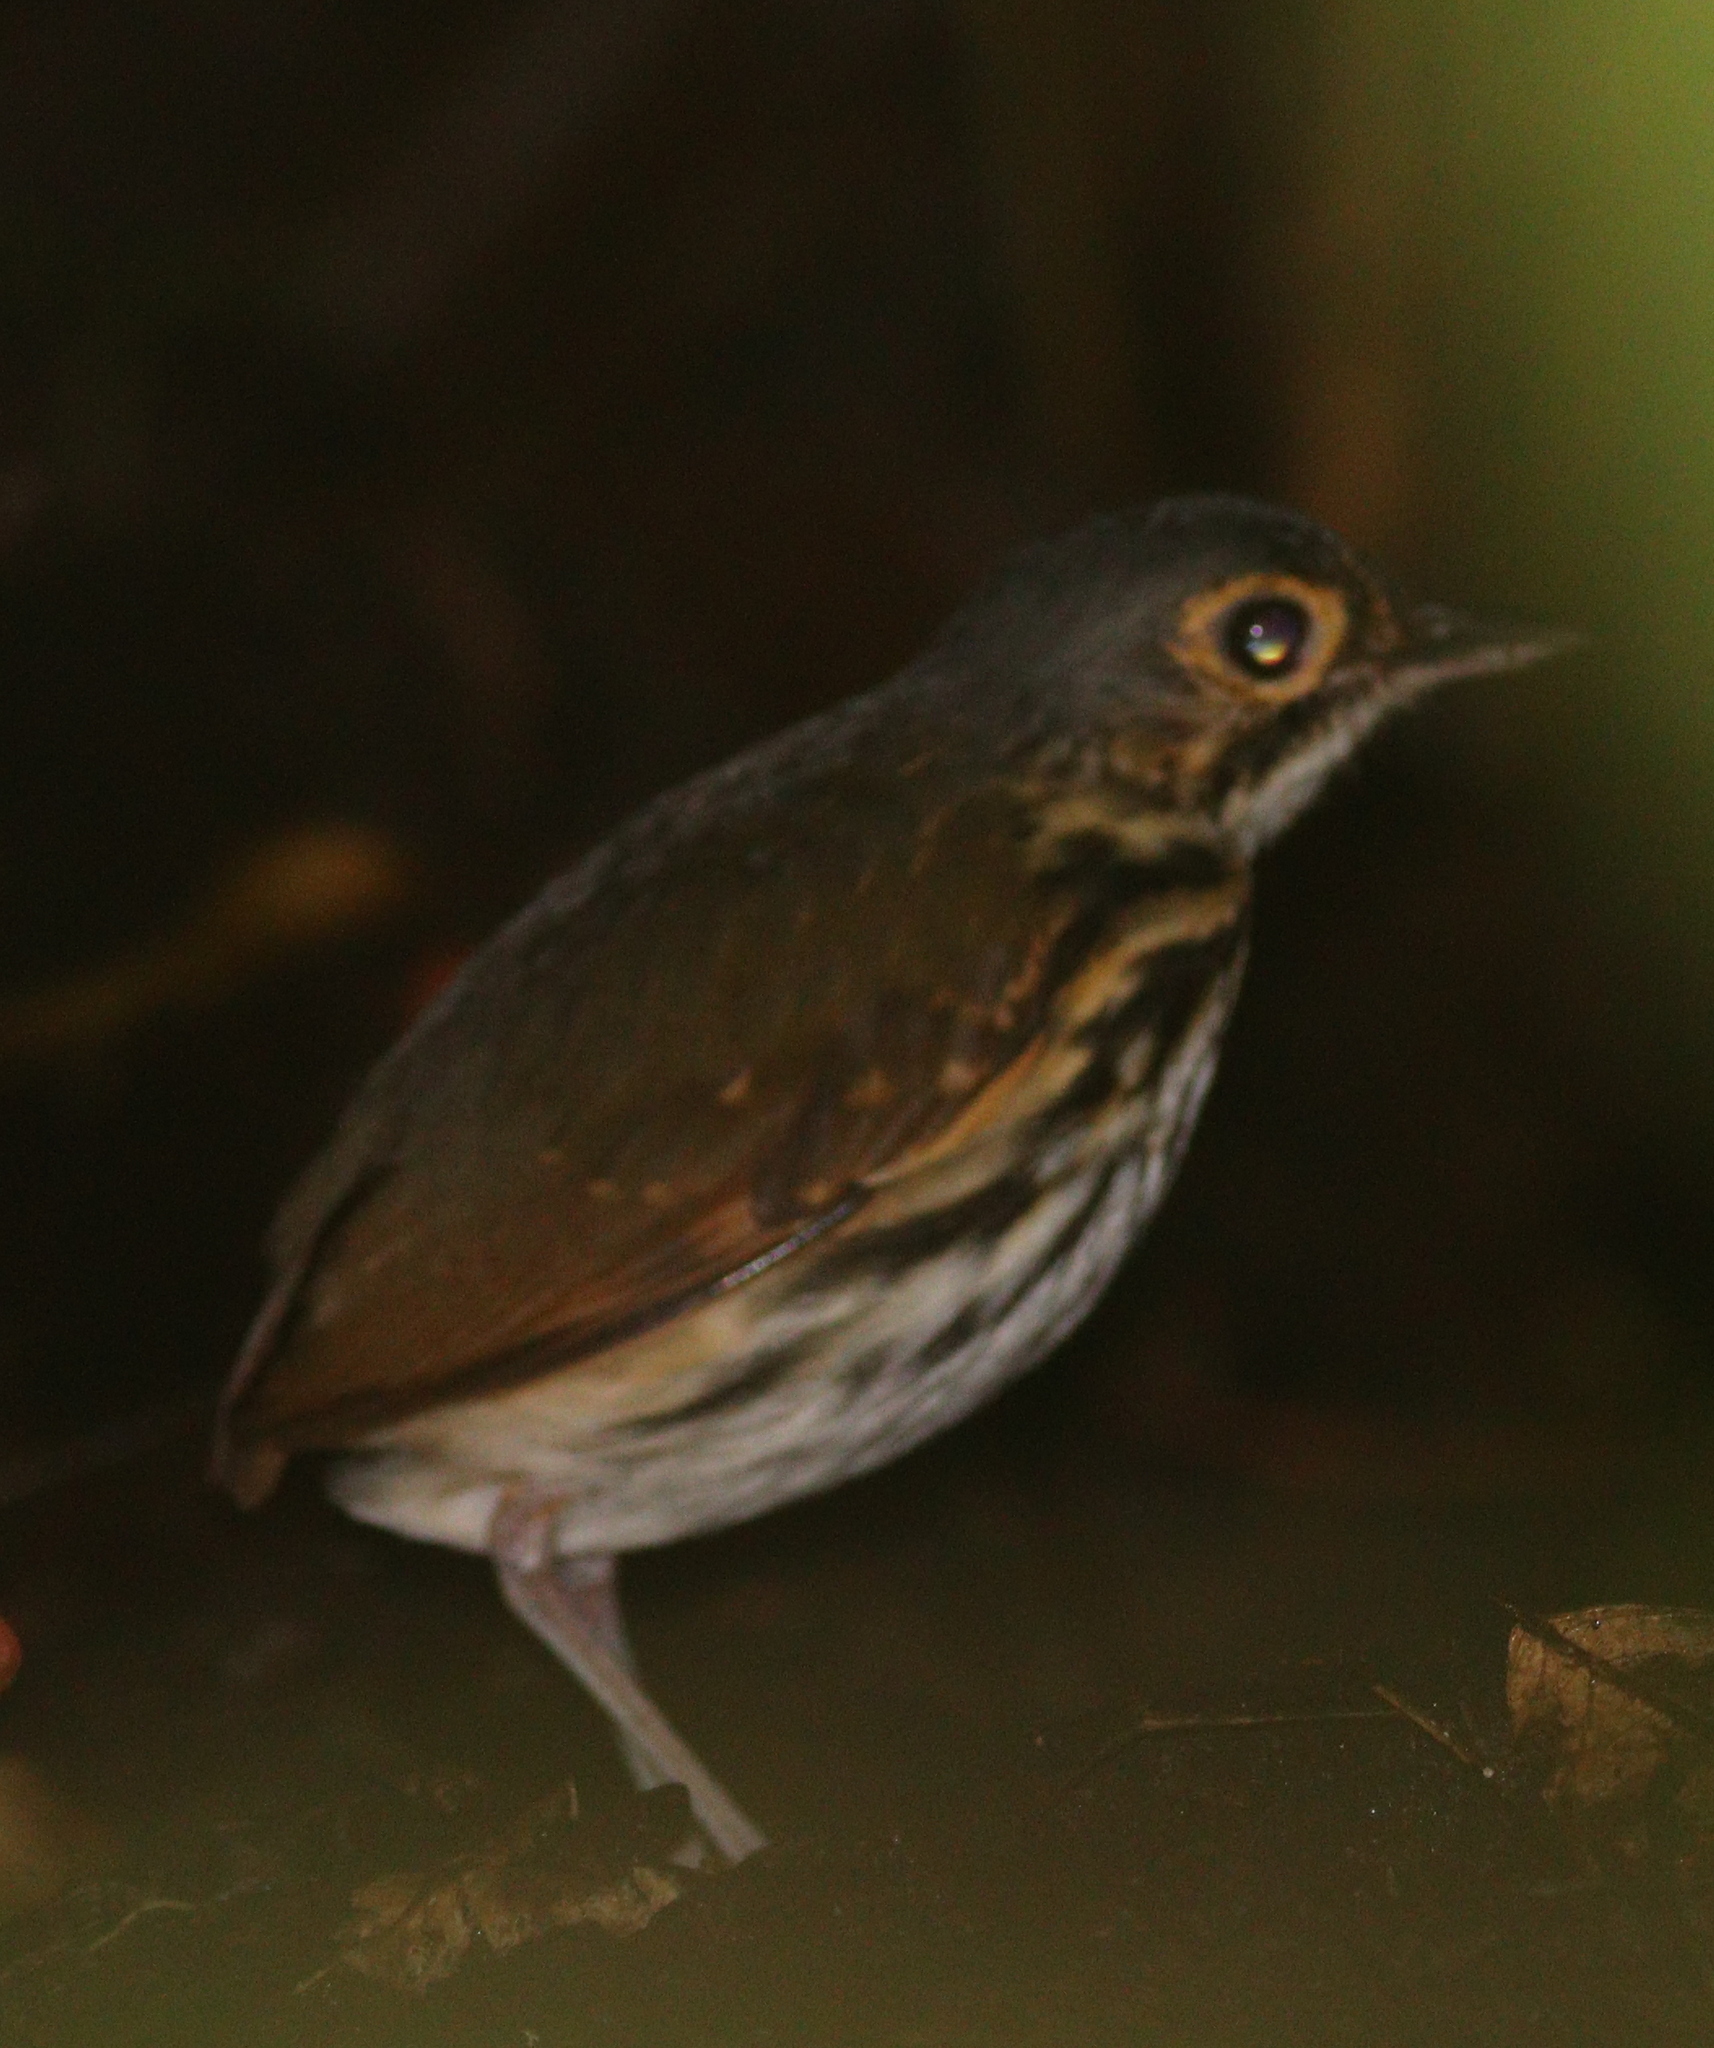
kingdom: Animalia
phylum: Chordata
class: Aves
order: Passeriformes
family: Grallariidae
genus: Hylopezus
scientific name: Hylopezus perspicillatus
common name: Streak-chested antpitta
